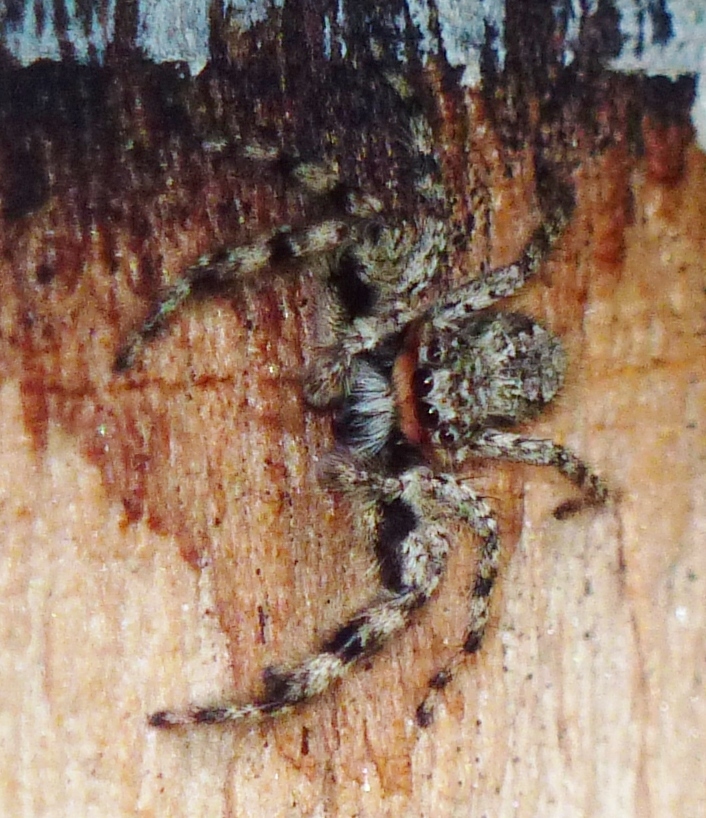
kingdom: Animalia
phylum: Arthropoda
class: Arachnida
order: Araneae
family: Salticidae
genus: Platycryptus
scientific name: Platycryptus undatus
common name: Tan jumping spider
